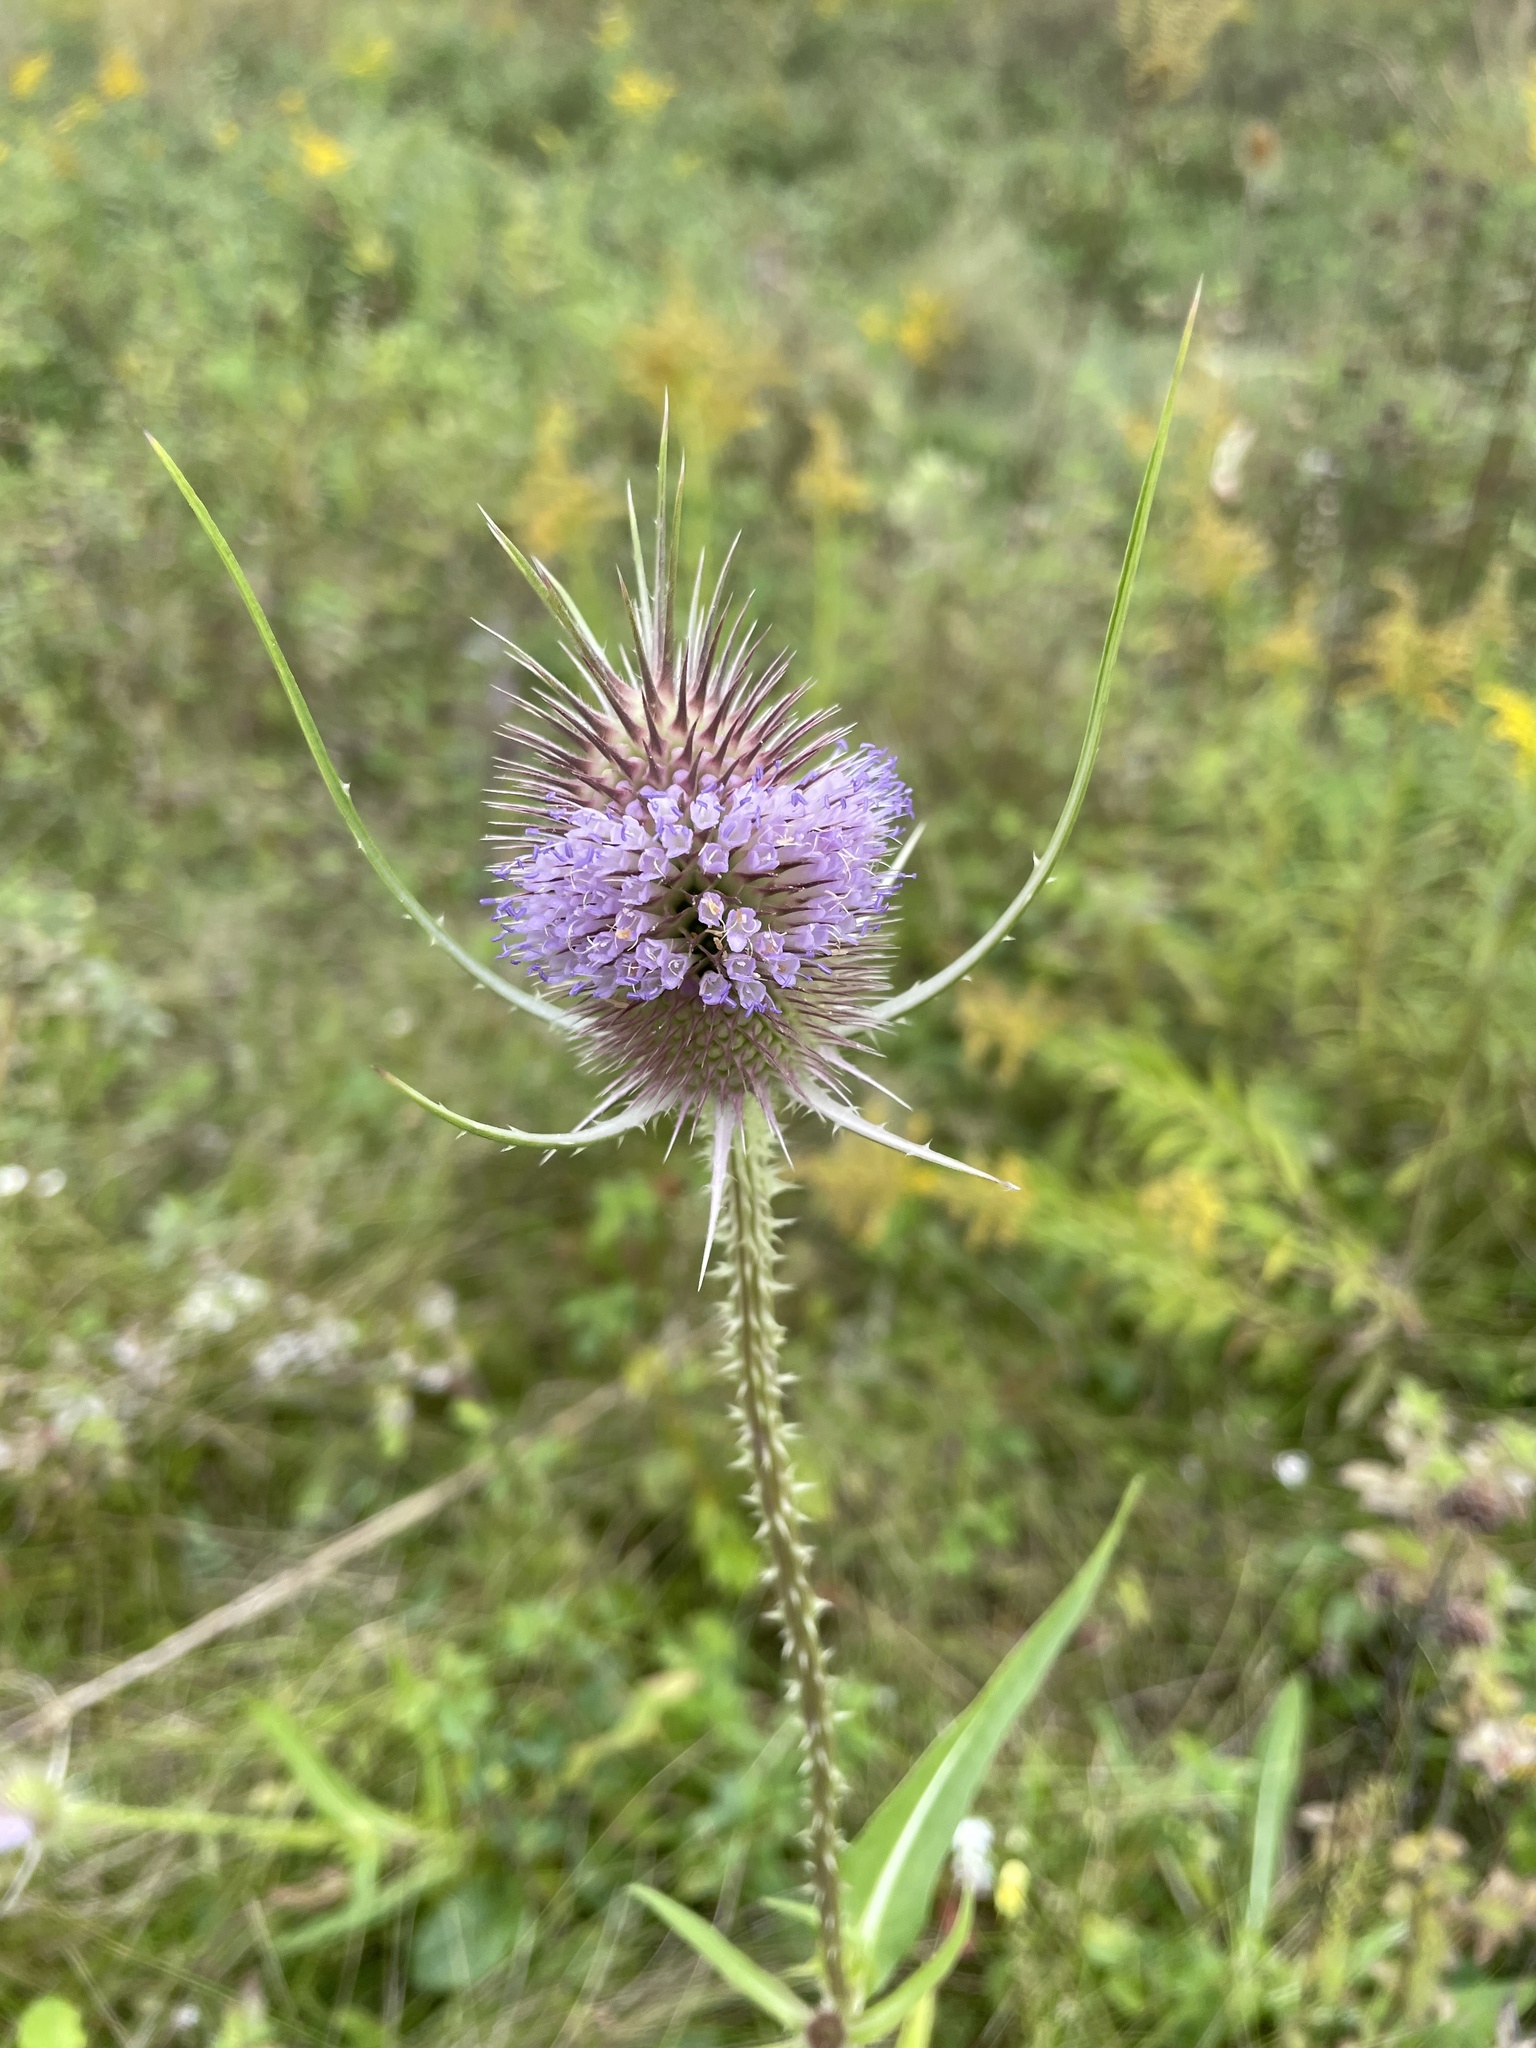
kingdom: Plantae
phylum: Tracheophyta
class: Magnoliopsida
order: Dipsacales
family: Caprifoliaceae
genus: Dipsacus
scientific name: Dipsacus fullonum
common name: Teasel
